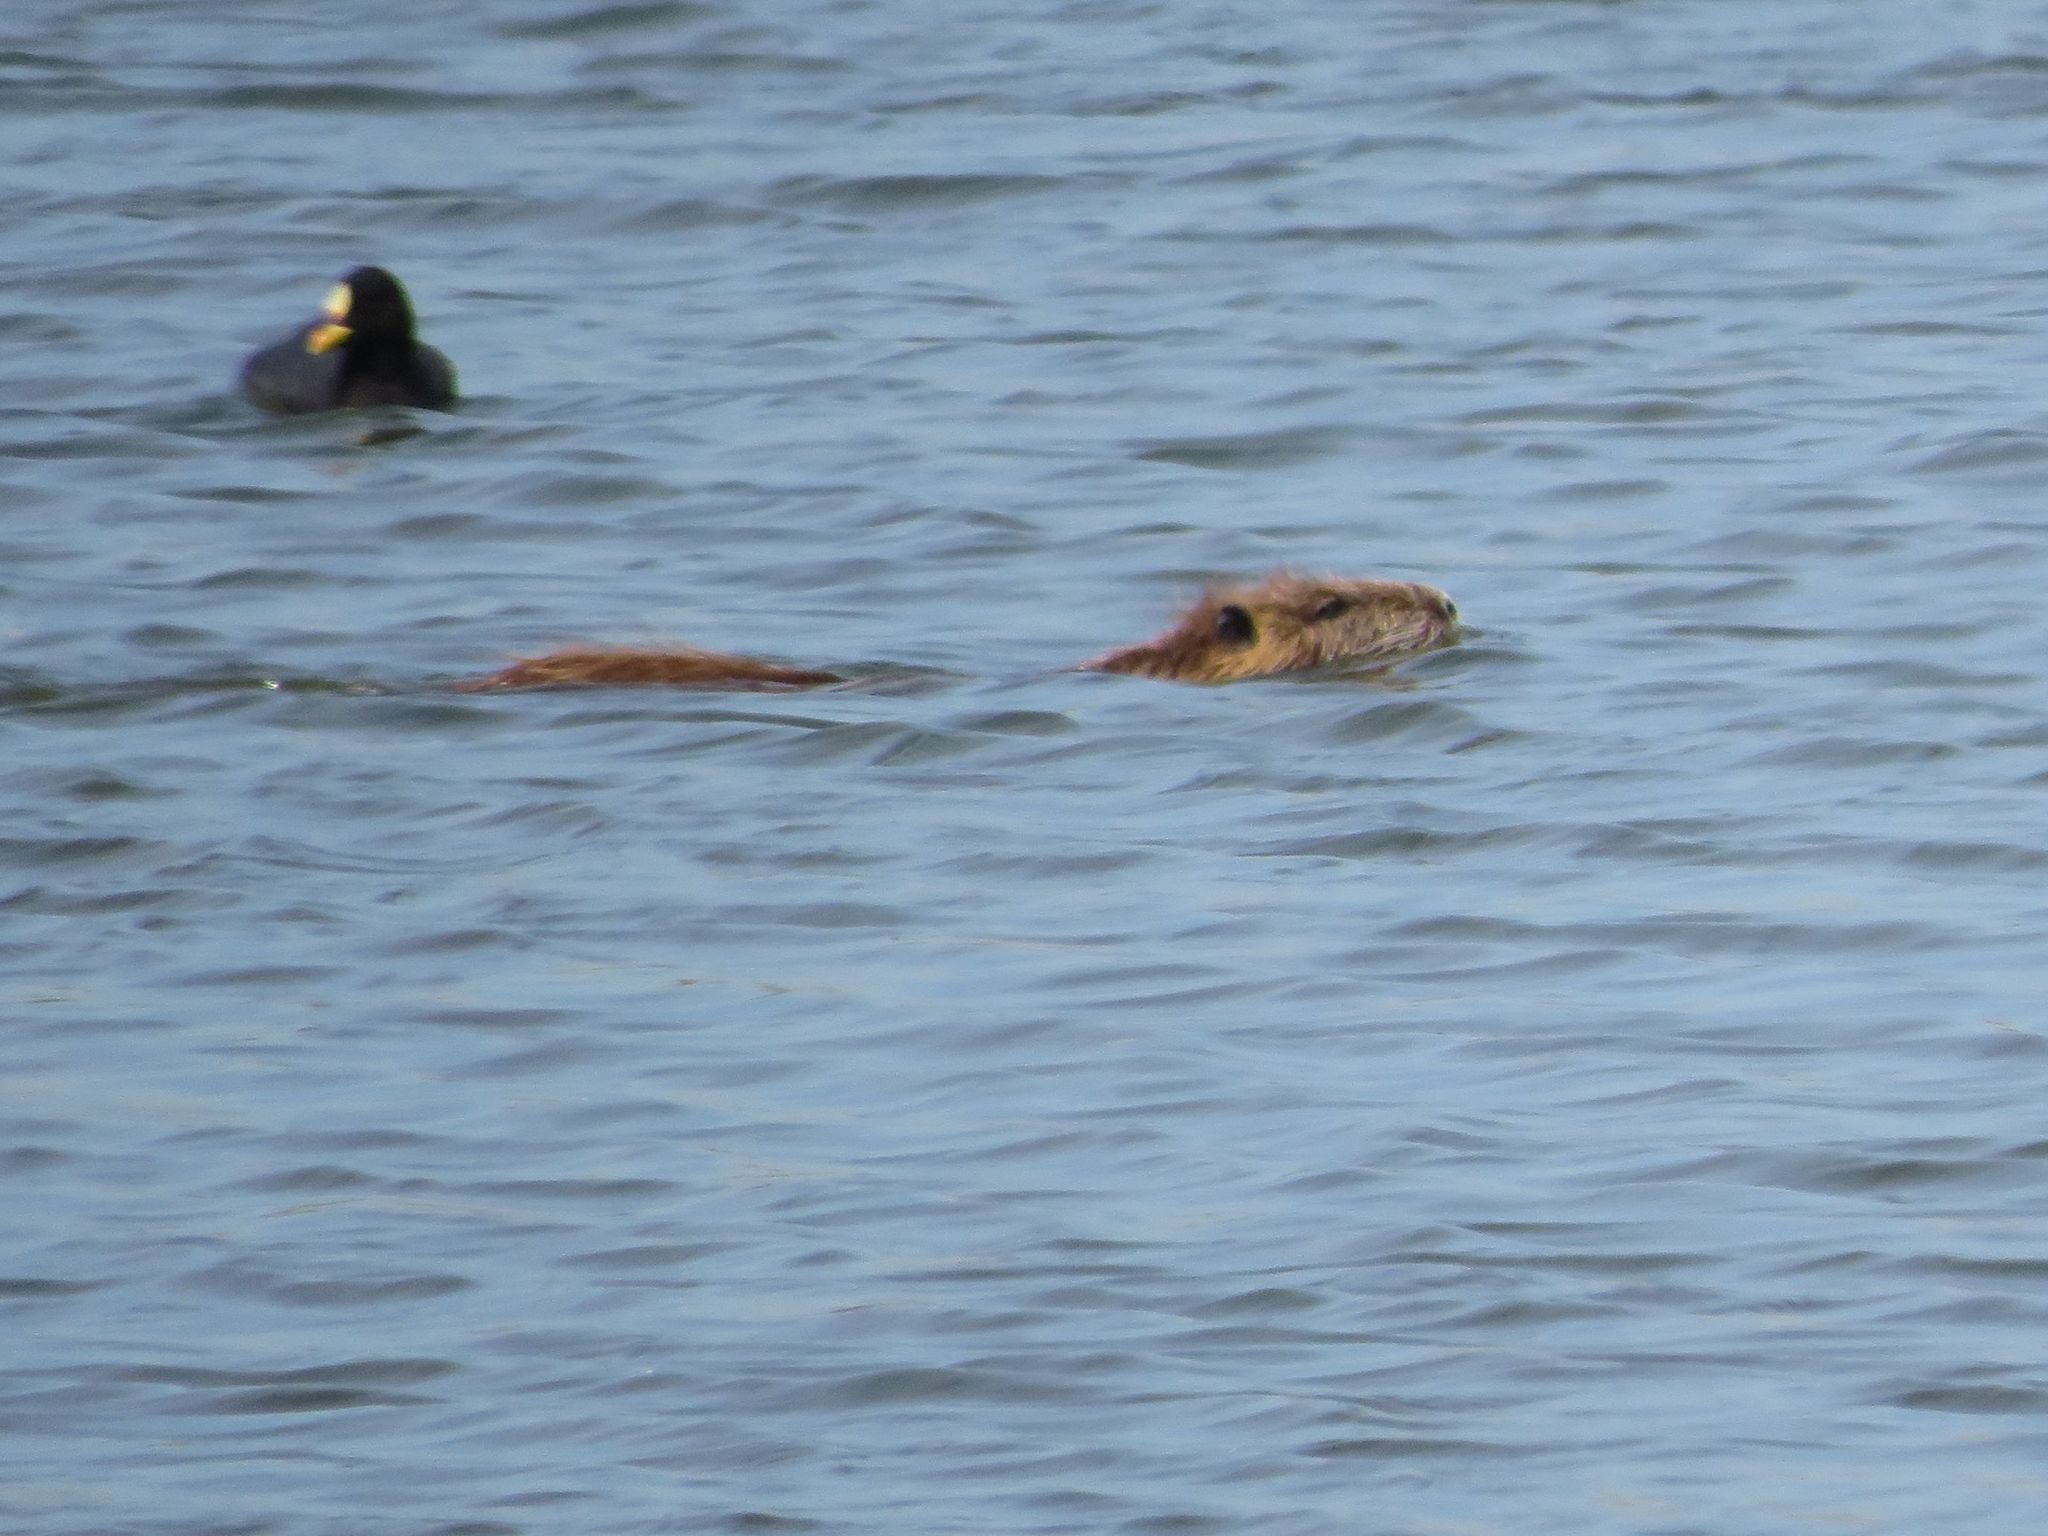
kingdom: Animalia
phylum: Chordata
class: Mammalia
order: Rodentia
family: Myocastoridae
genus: Myocastor
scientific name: Myocastor coypus
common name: Coypu
